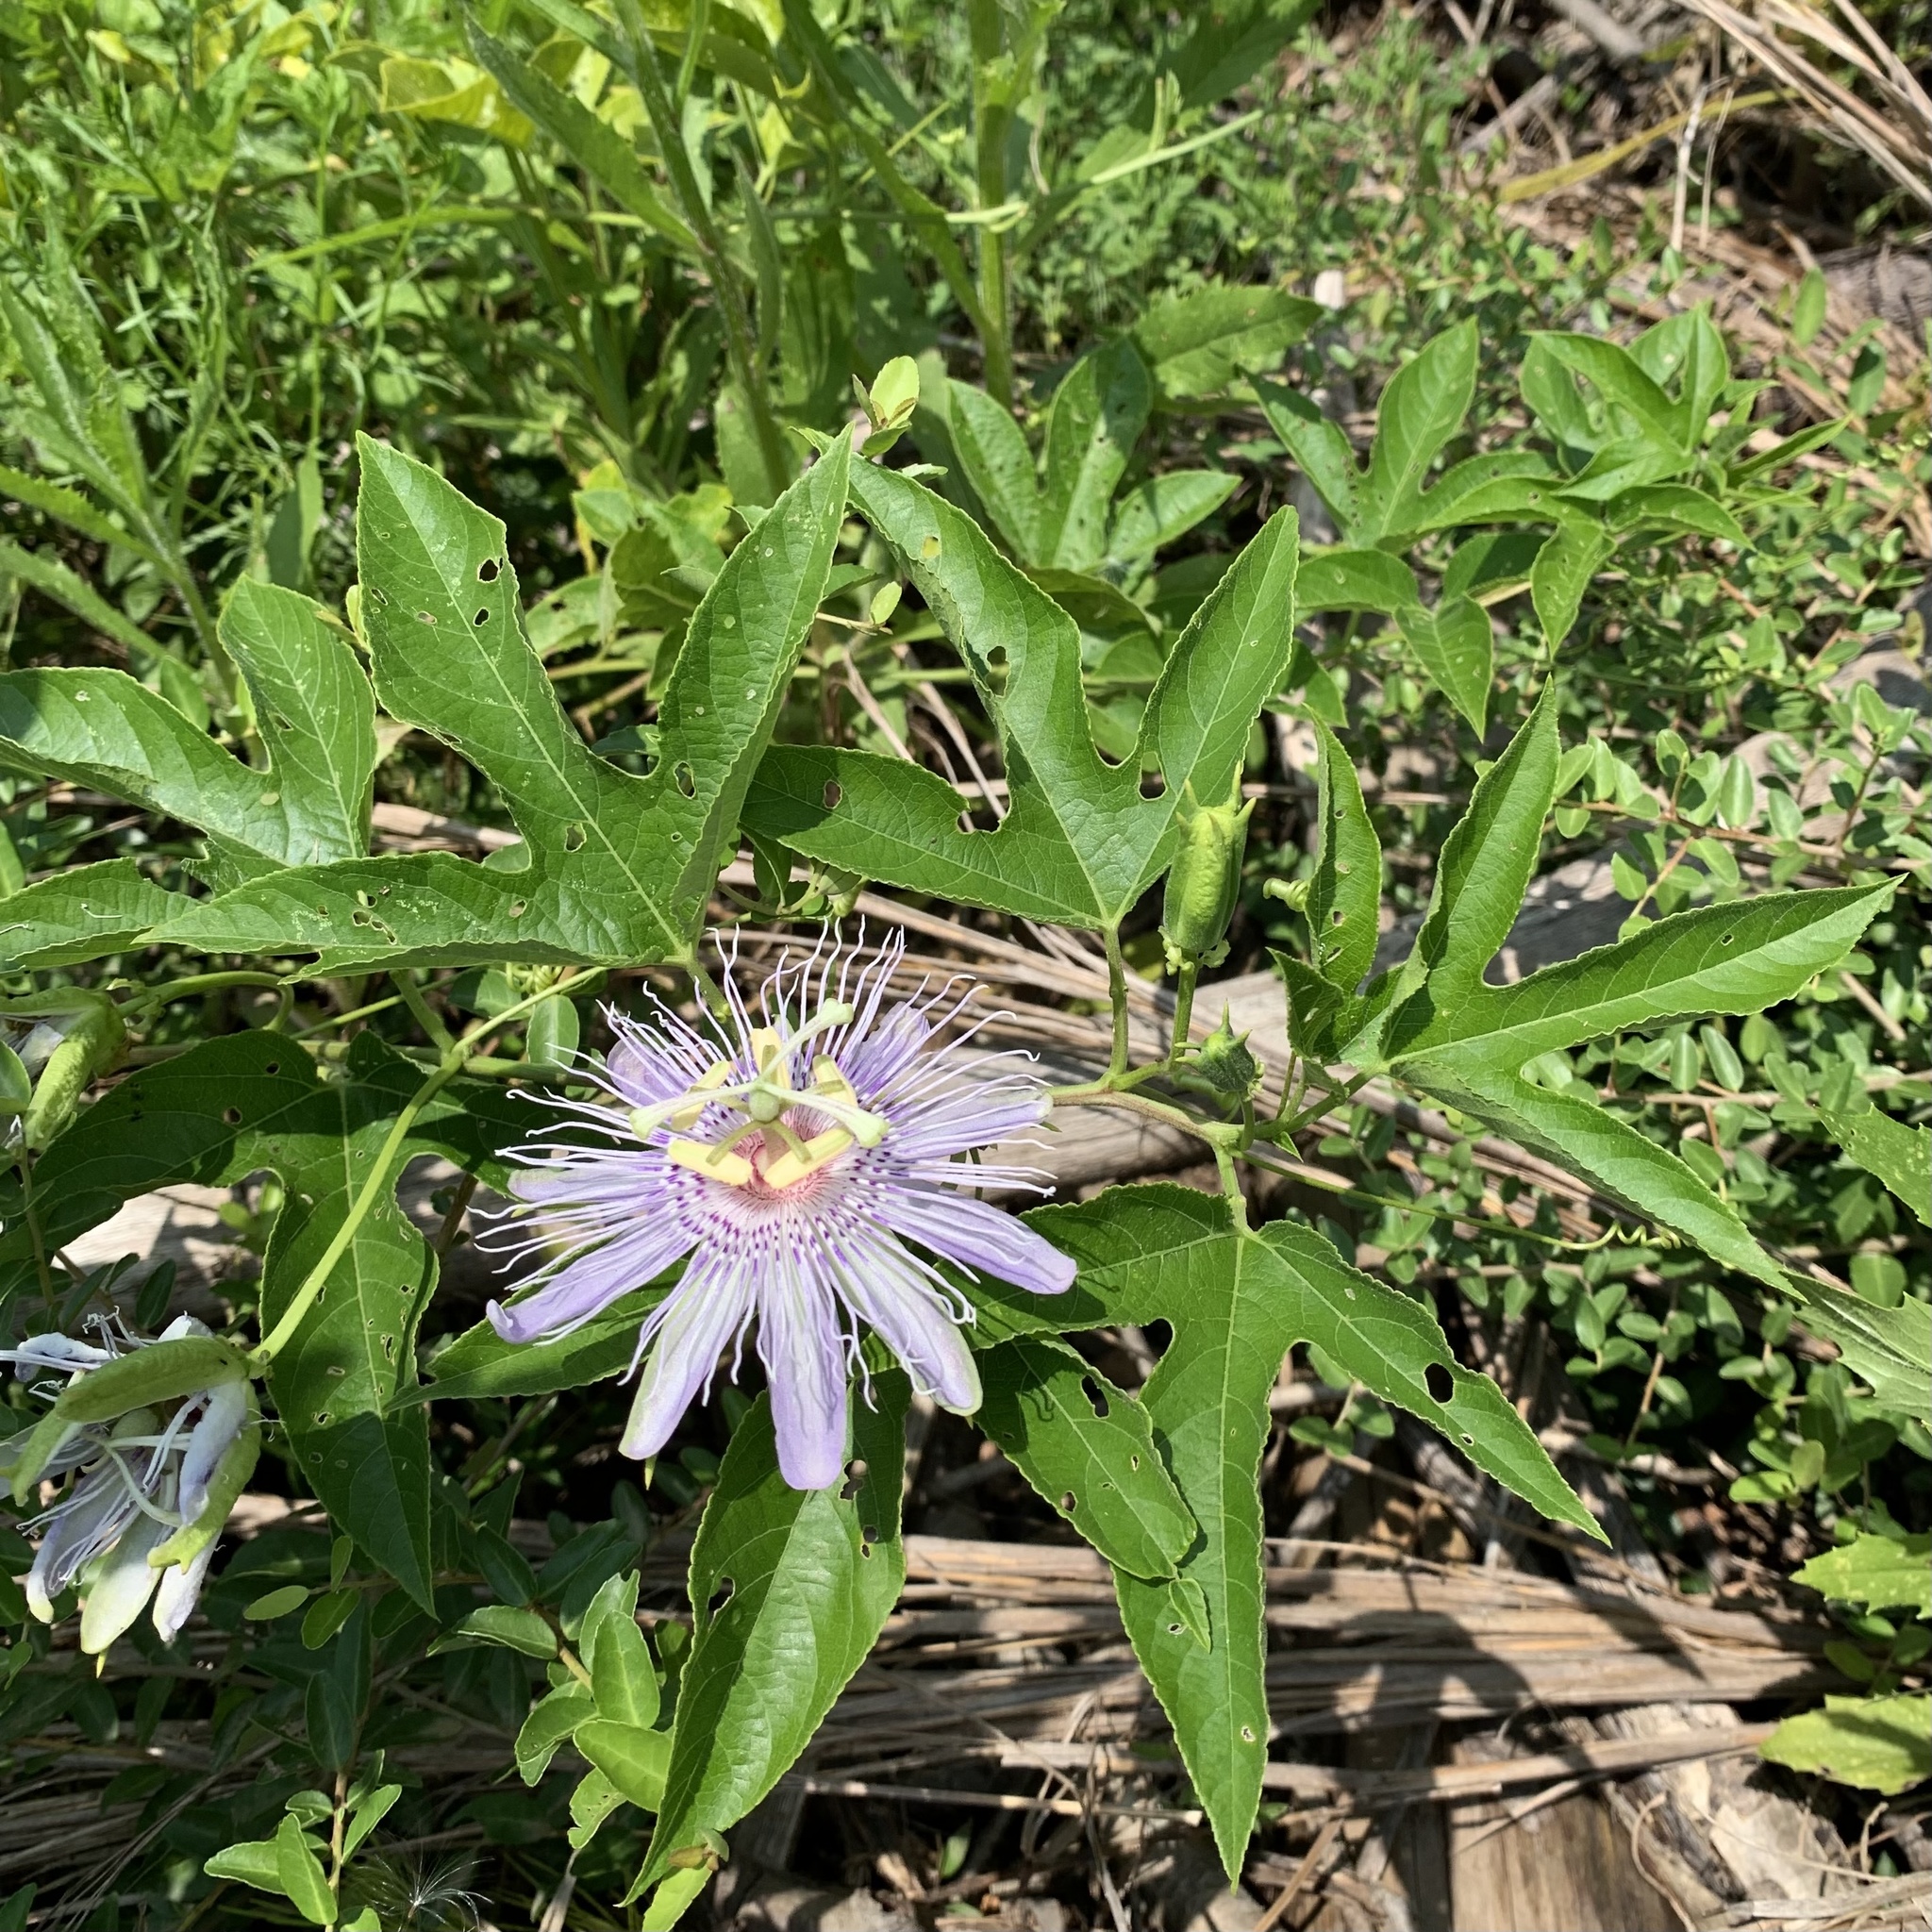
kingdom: Plantae
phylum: Tracheophyta
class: Magnoliopsida
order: Malpighiales
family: Passifloraceae
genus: Passiflora
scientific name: Passiflora incarnata
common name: Apricot-vine
